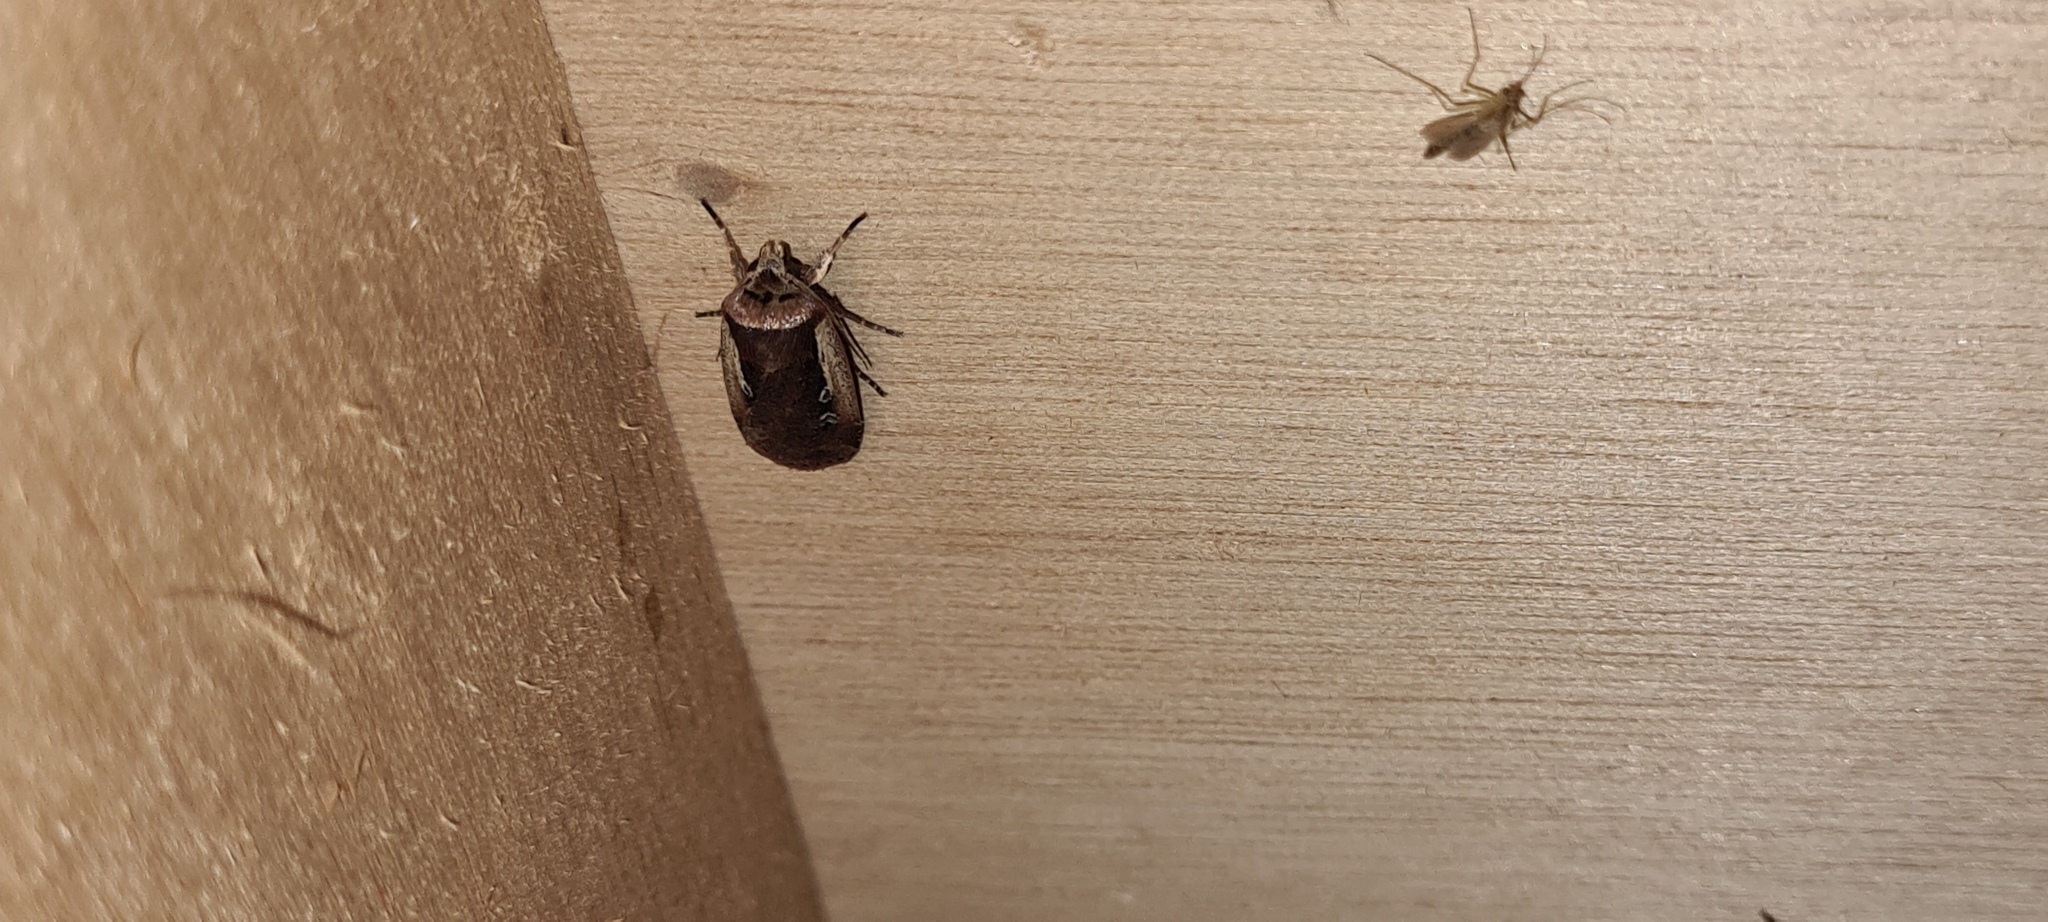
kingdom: Animalia
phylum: Arthropoda
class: Insecta
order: Lepidoptera
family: Noctuidae
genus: Ochropleura
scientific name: Ochropleura plecta
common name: Flame shoulder
